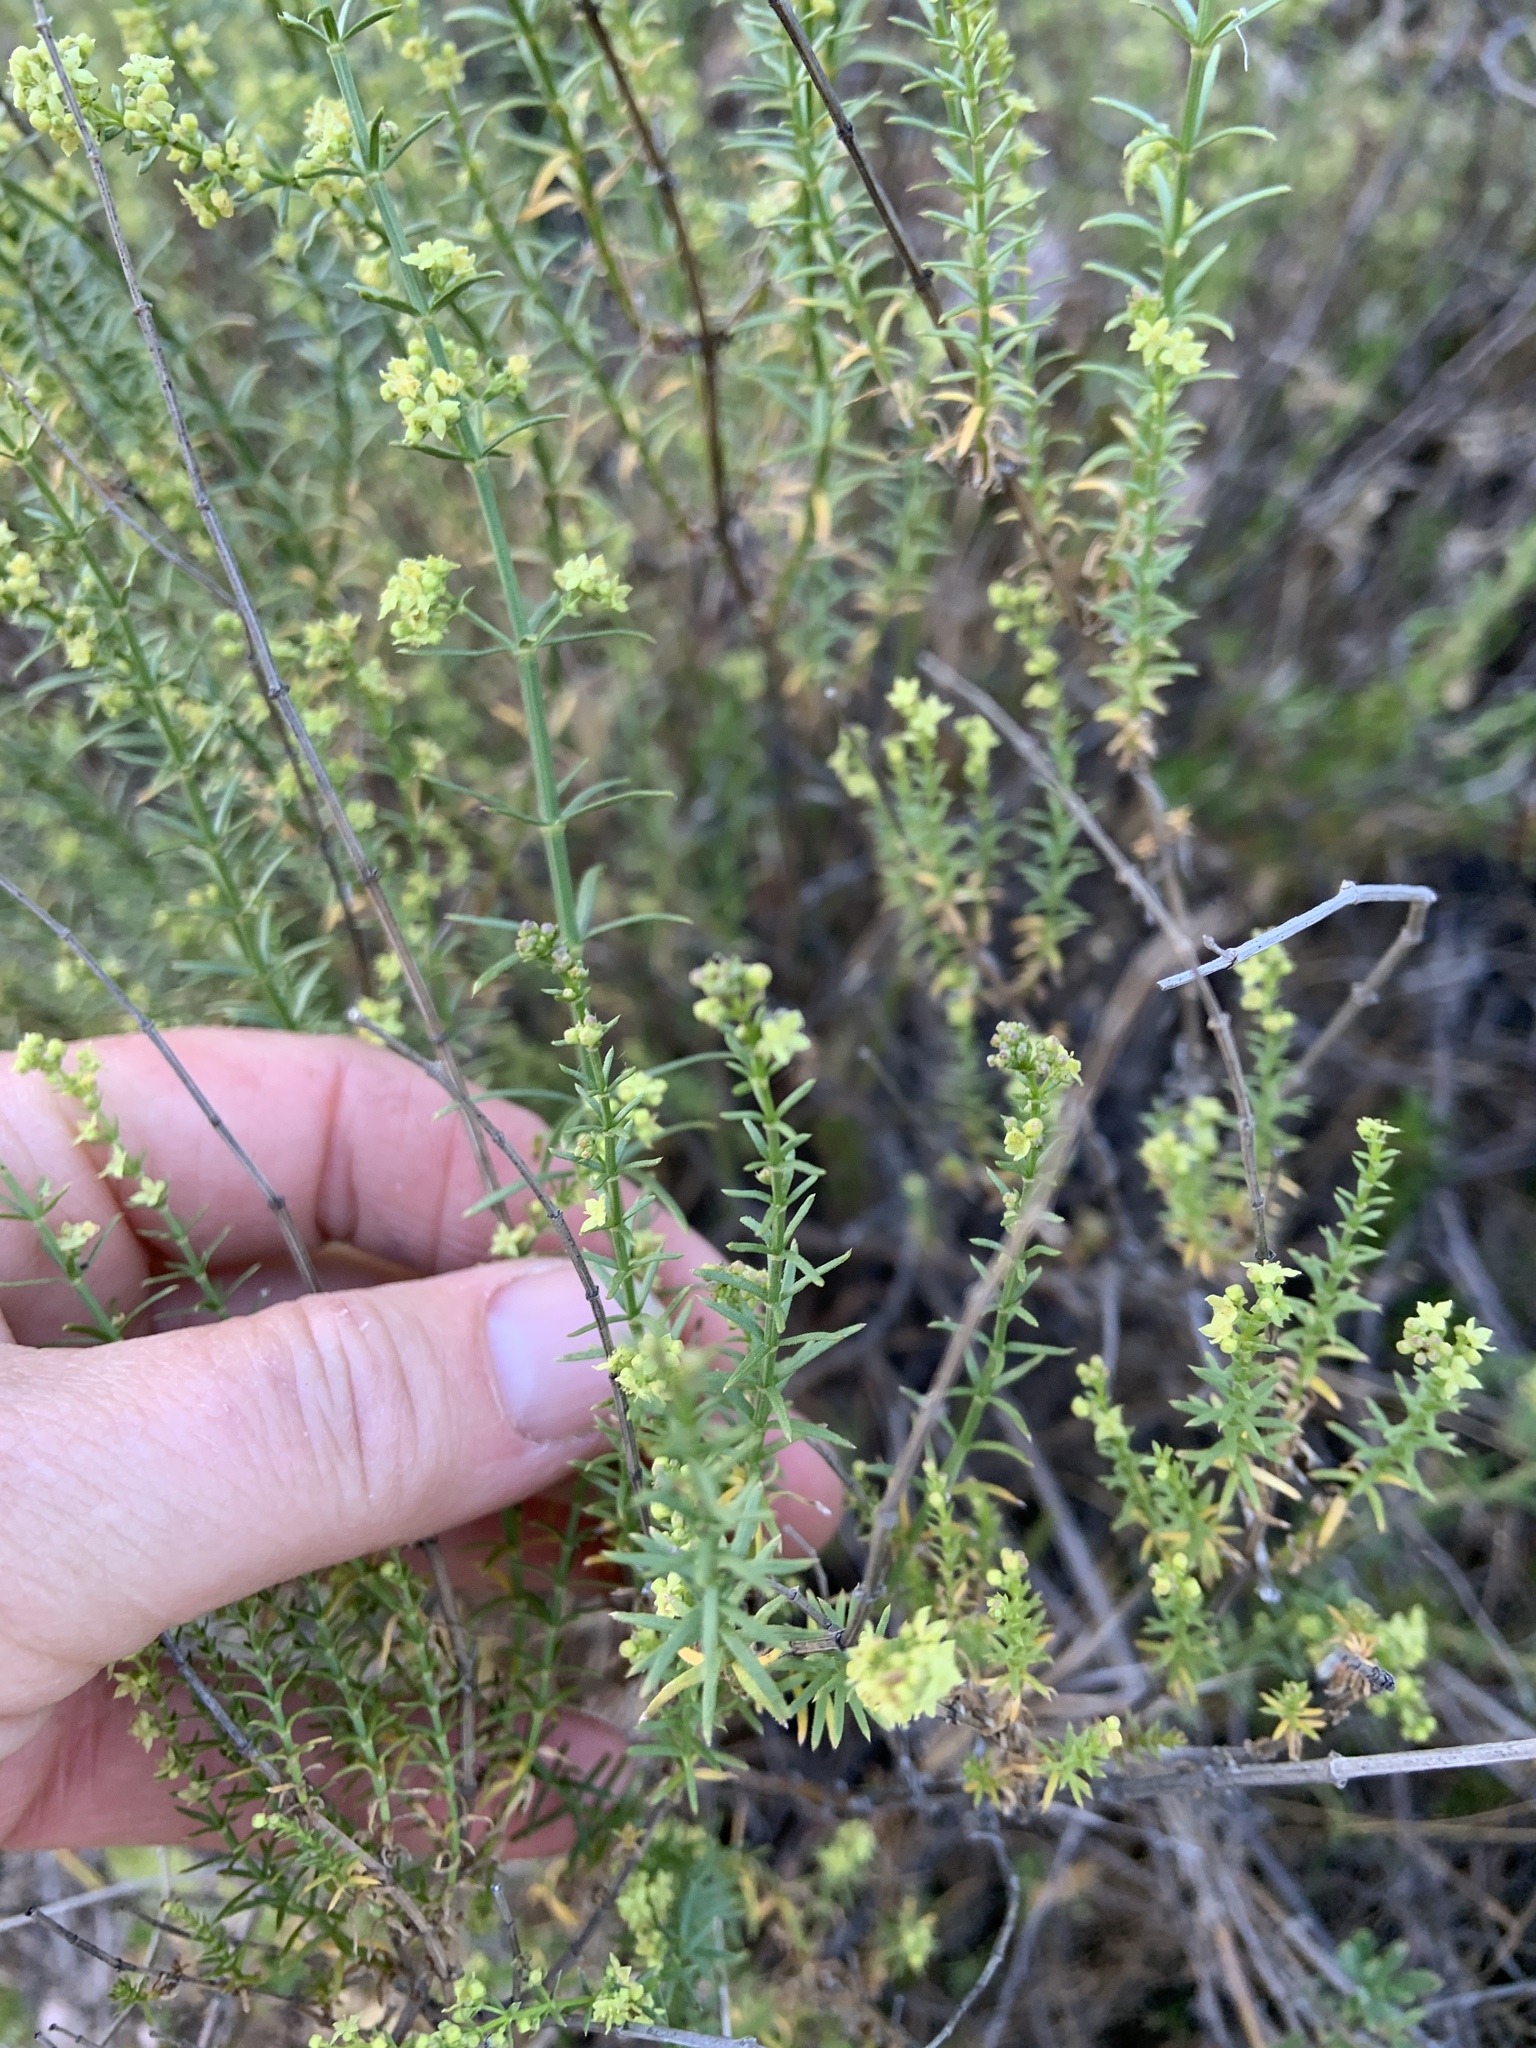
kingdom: Plantae
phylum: Tracheophyta
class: Magnoliopsida
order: Gentianales
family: Rubiaceae
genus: Galium
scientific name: Galium angustifolium
